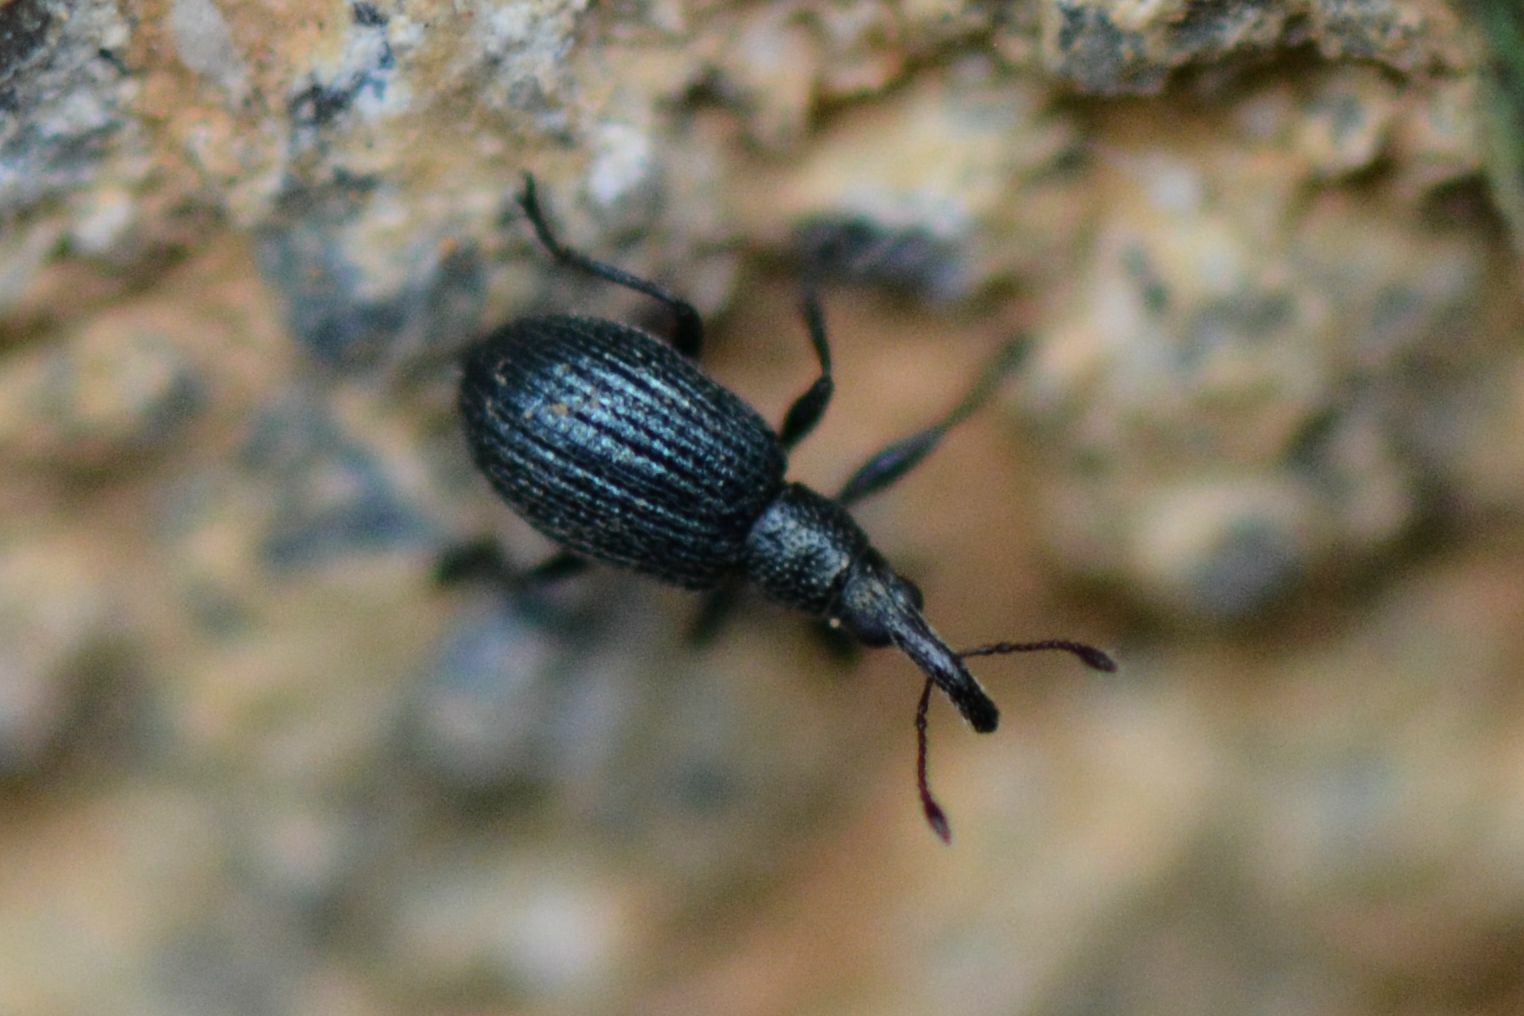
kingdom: Animalia
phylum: Arthropoda
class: Insecta
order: Coleoptera
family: Apionidae
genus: Ischnopterapion
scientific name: Ischnopterapion virens
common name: White clover weevil
